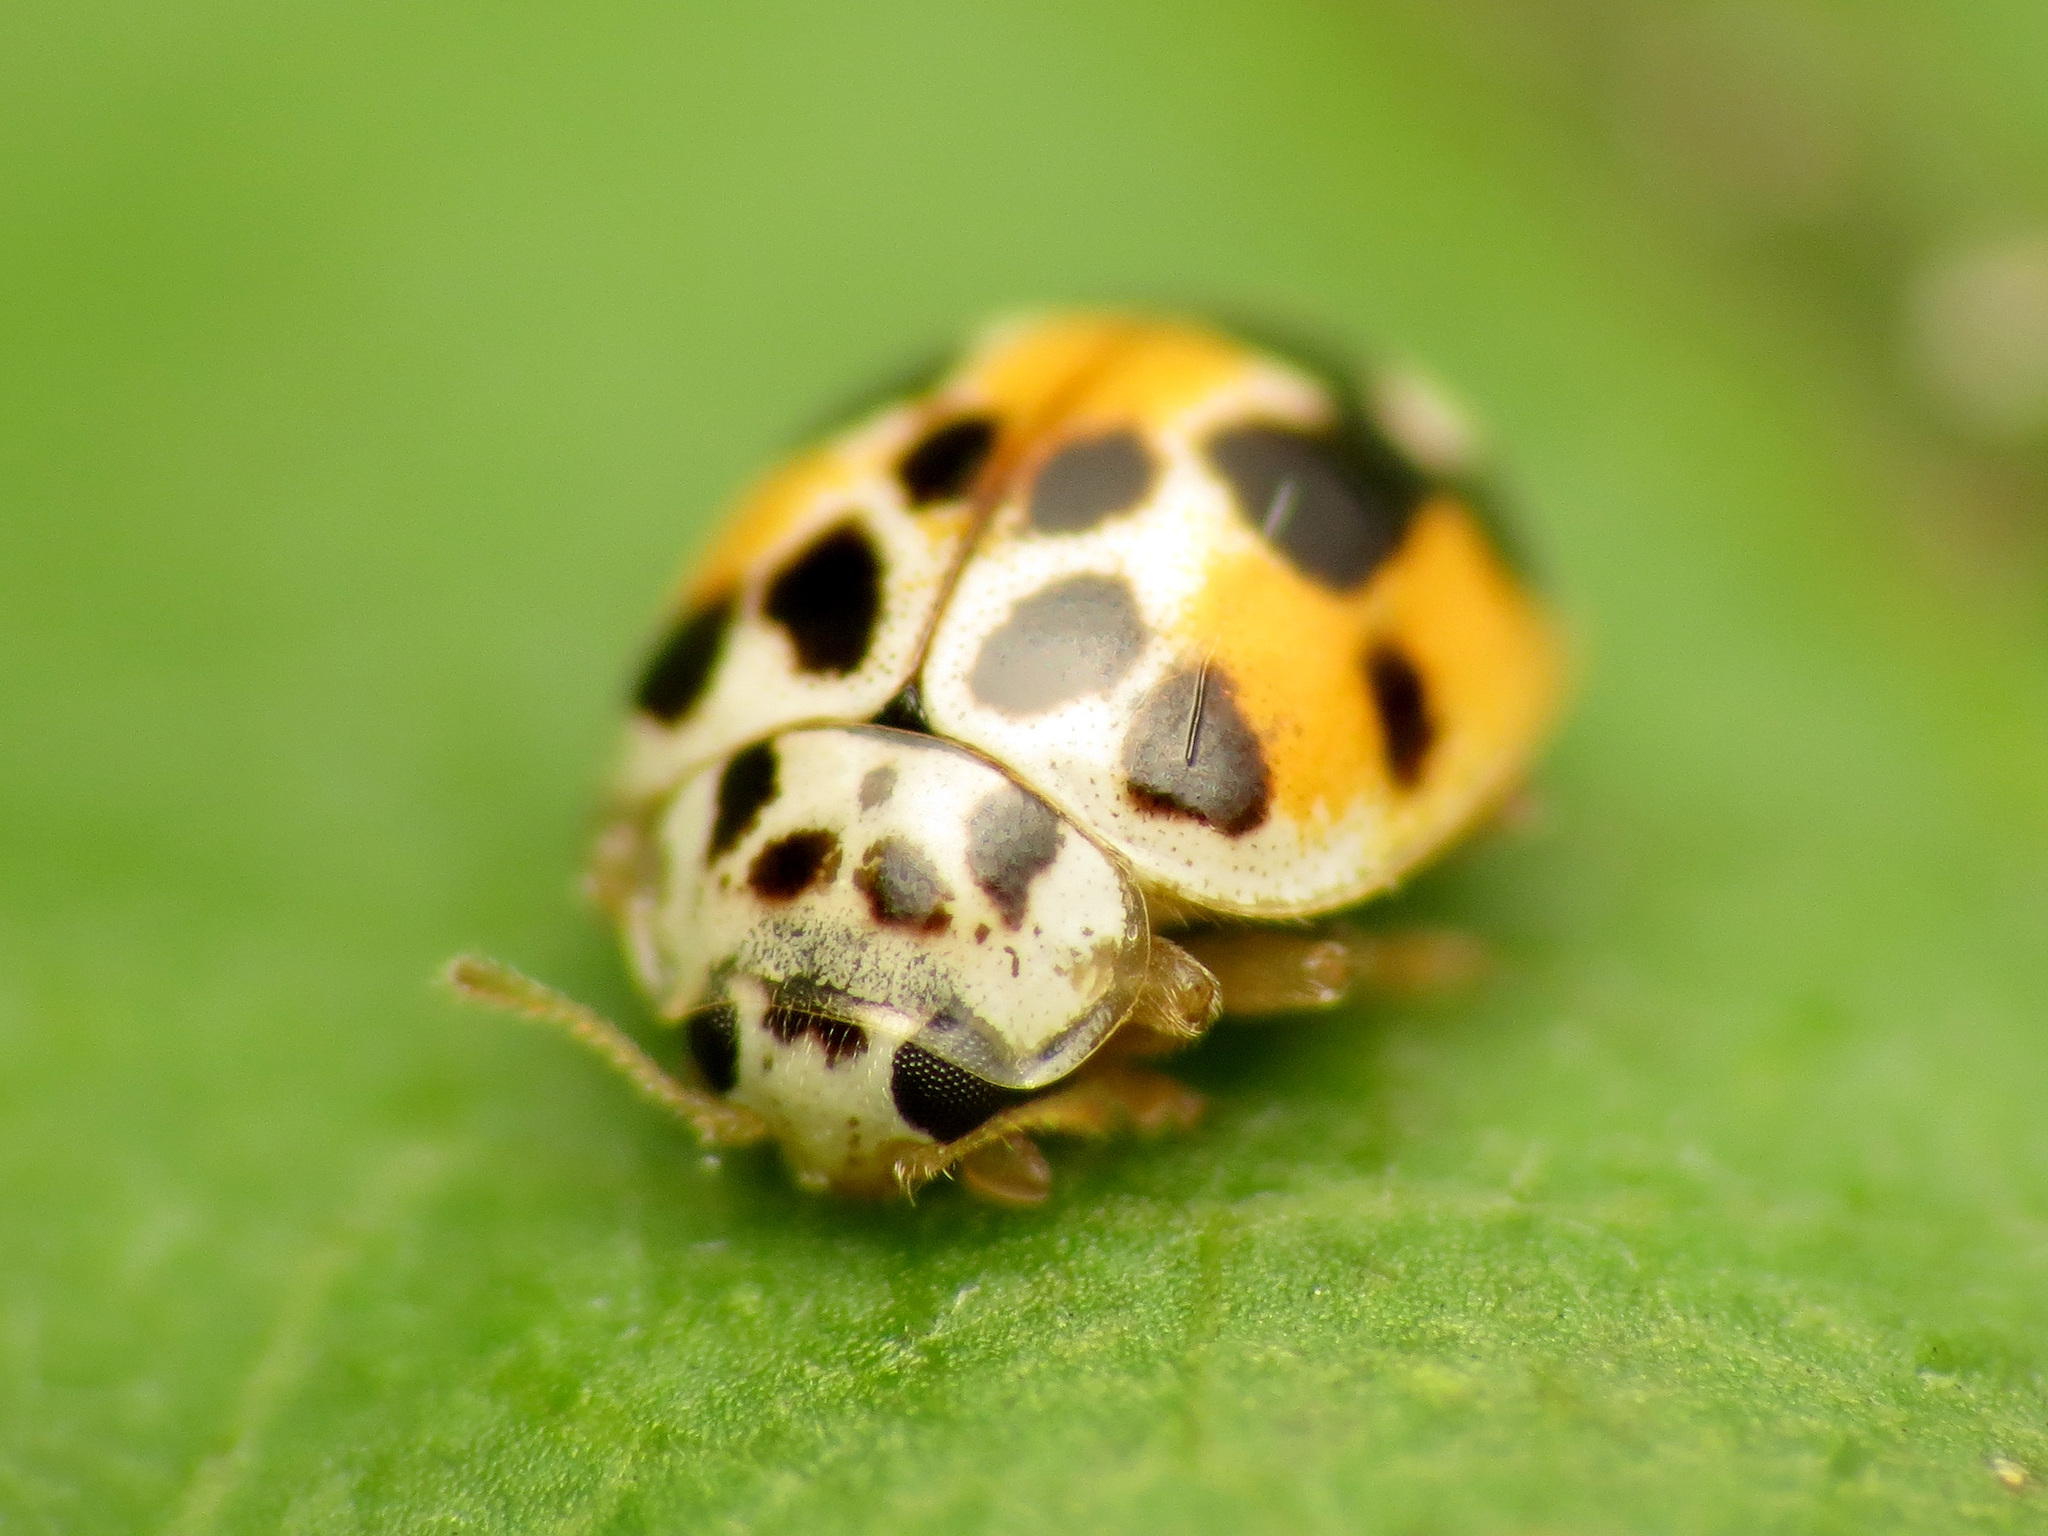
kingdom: Animalia
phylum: Arthropoda
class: Insecta
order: Coleoptera
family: Coccinellidae
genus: Psyllobora
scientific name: Psyllobora vigintimaculata
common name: Ladybird beetle
